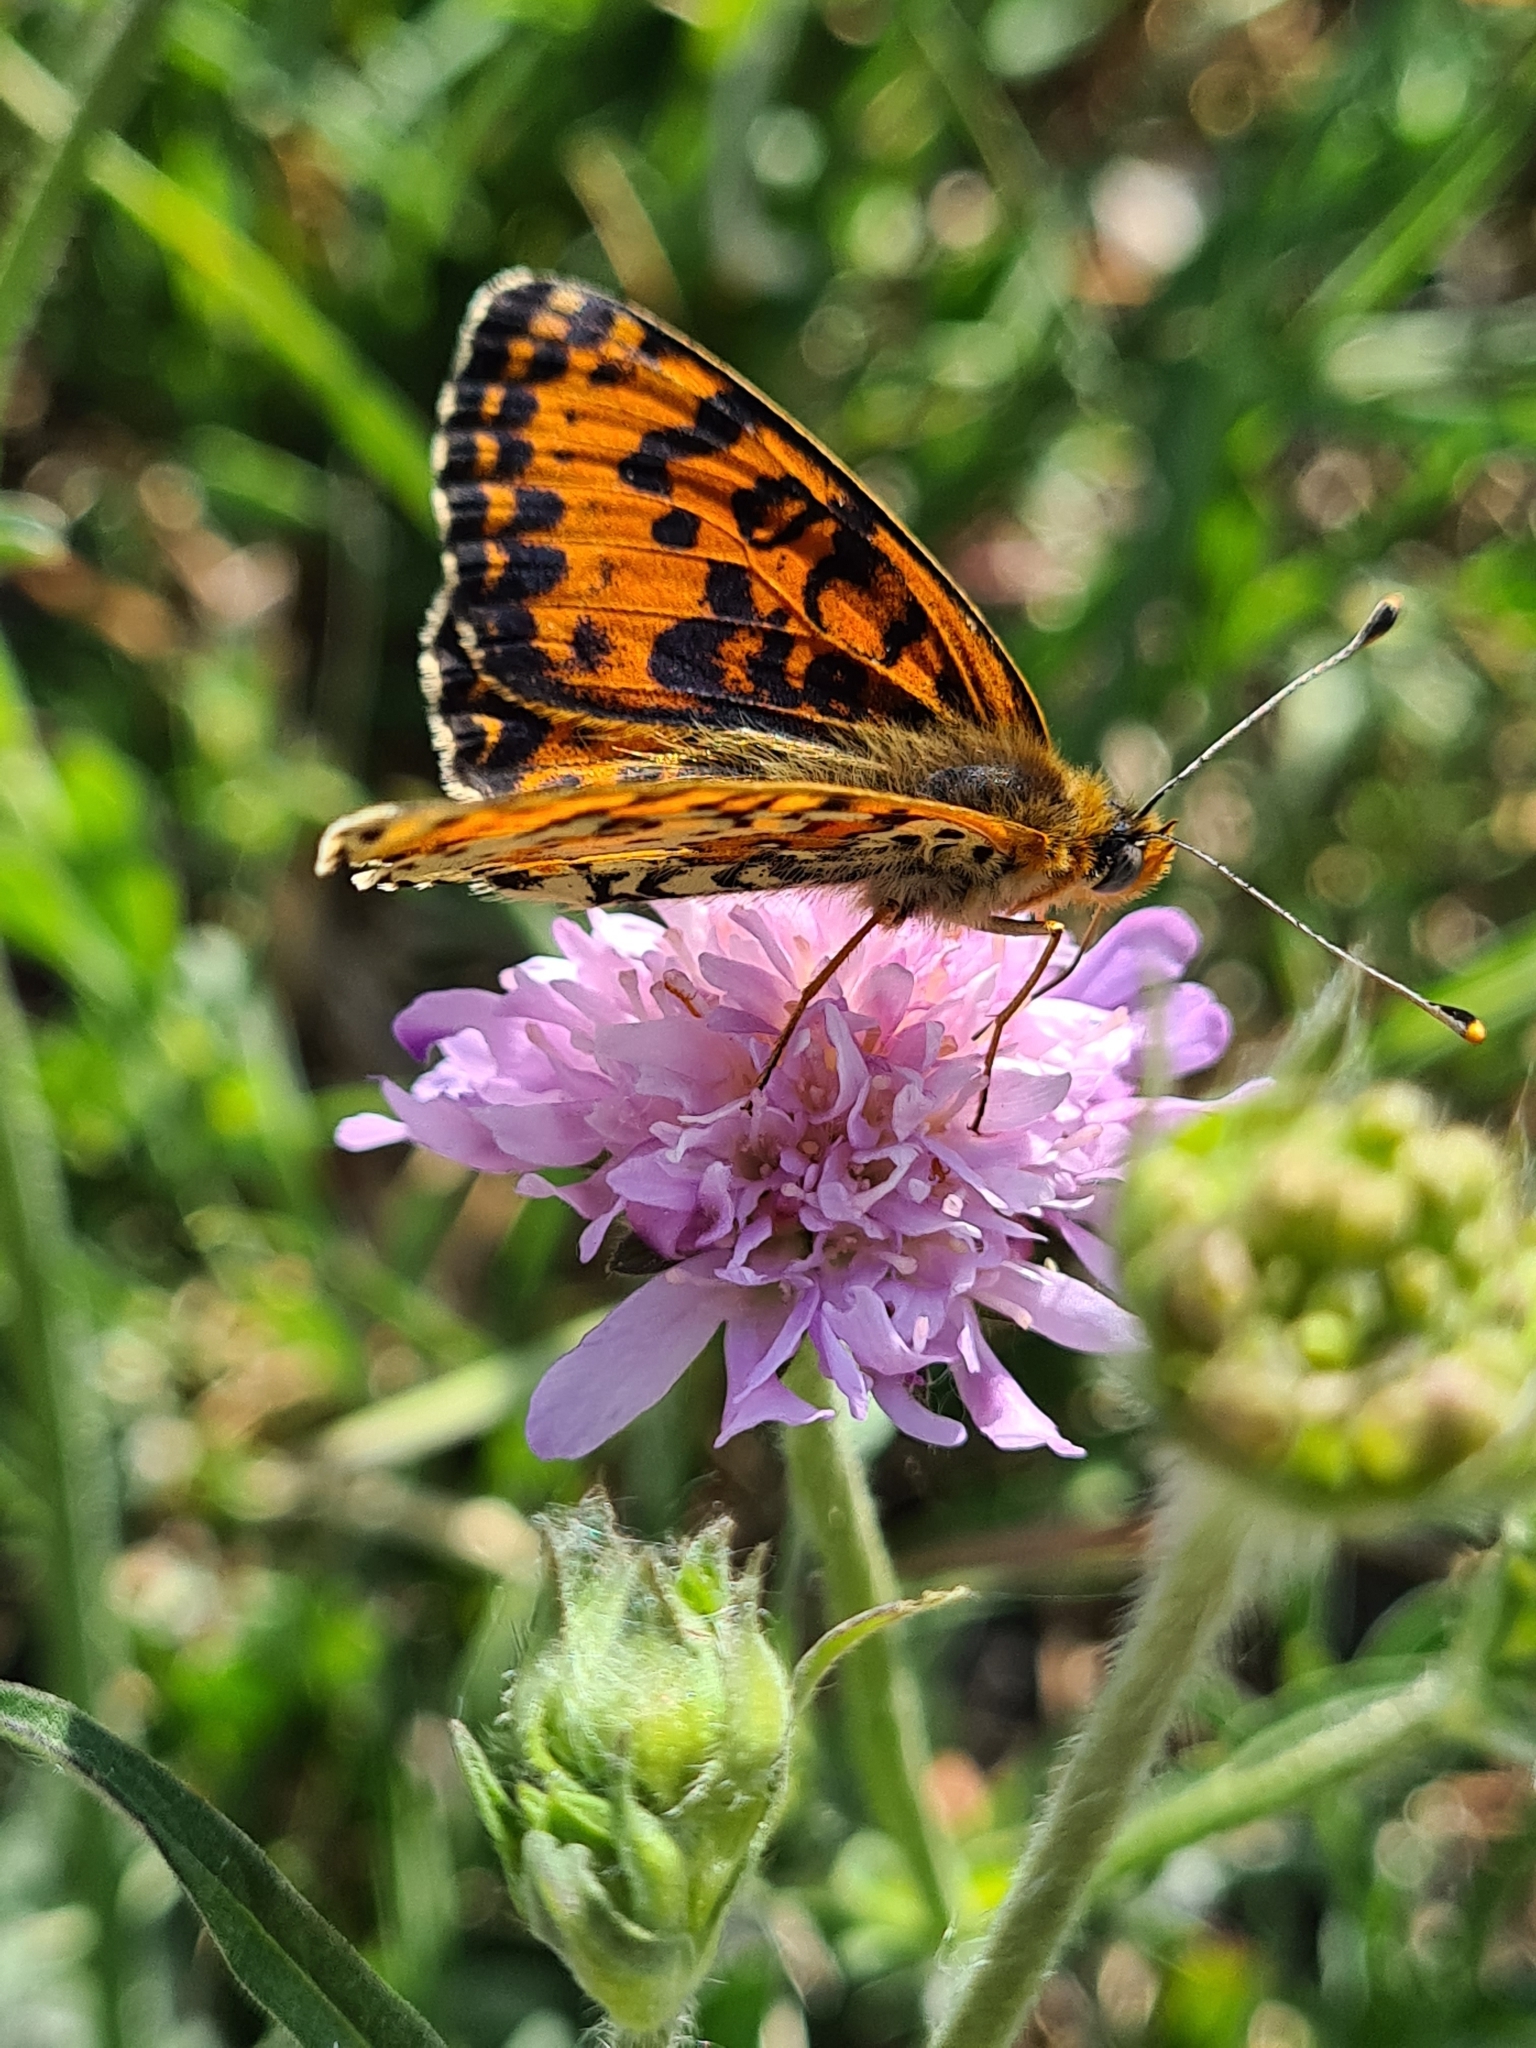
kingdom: Animalia
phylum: Arthropoda
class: Insecta
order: Lepidoptera
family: Nymphalidae
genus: Melitaea
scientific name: Melitaea didyma
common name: Spotted fritillary
